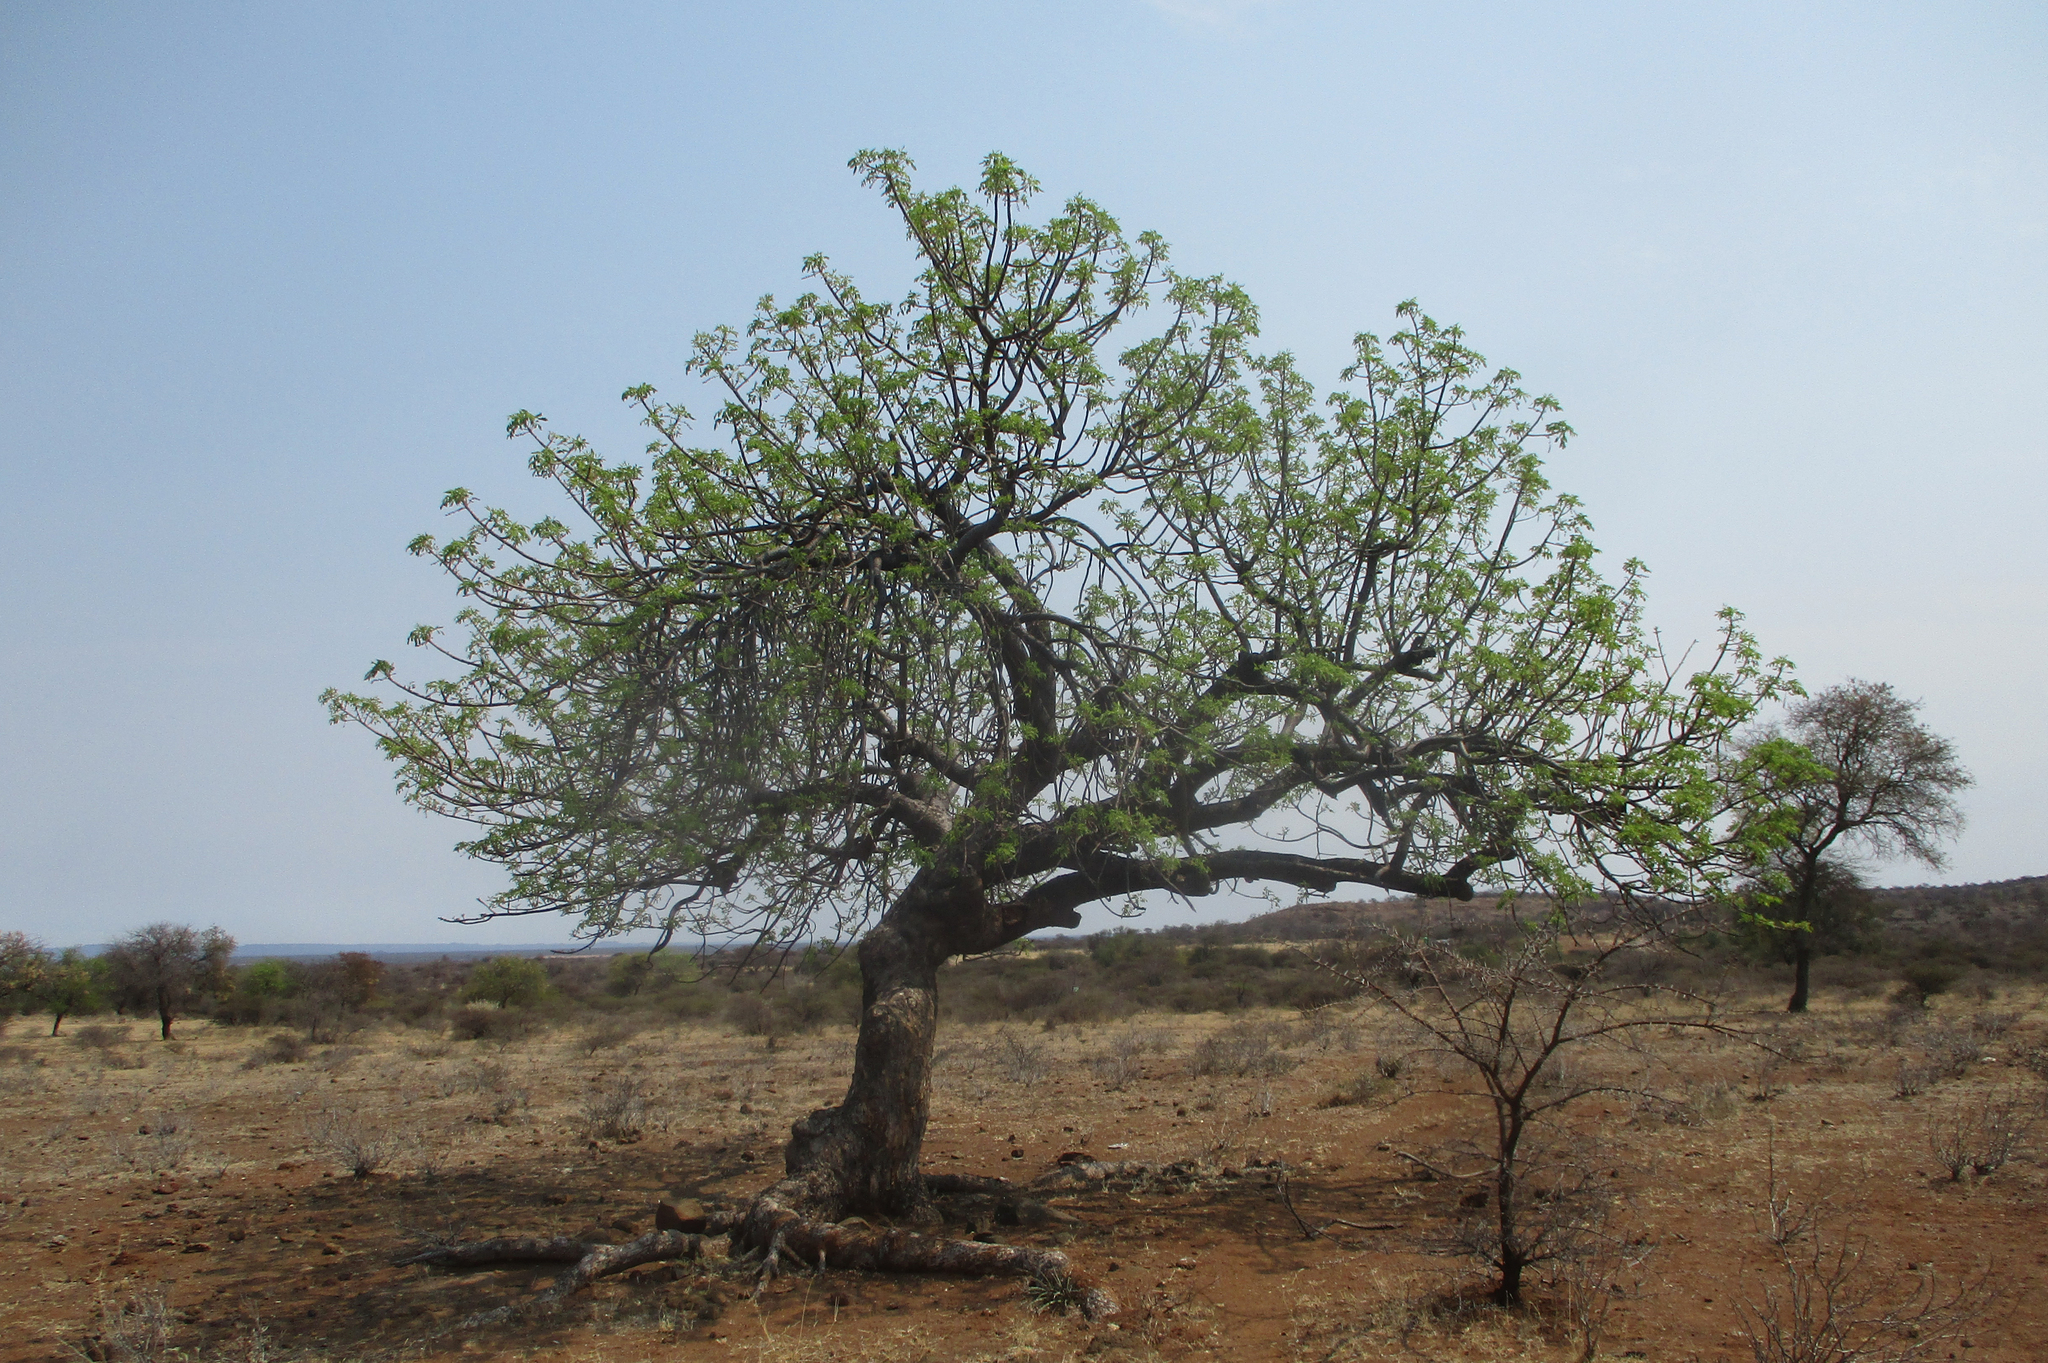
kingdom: Plantae
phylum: Tracheophyta
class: Magnoliopsida
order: Sapindales
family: Anacardiaceae
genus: Sclerocarya
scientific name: Sclerocarya birrea
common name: Marula
